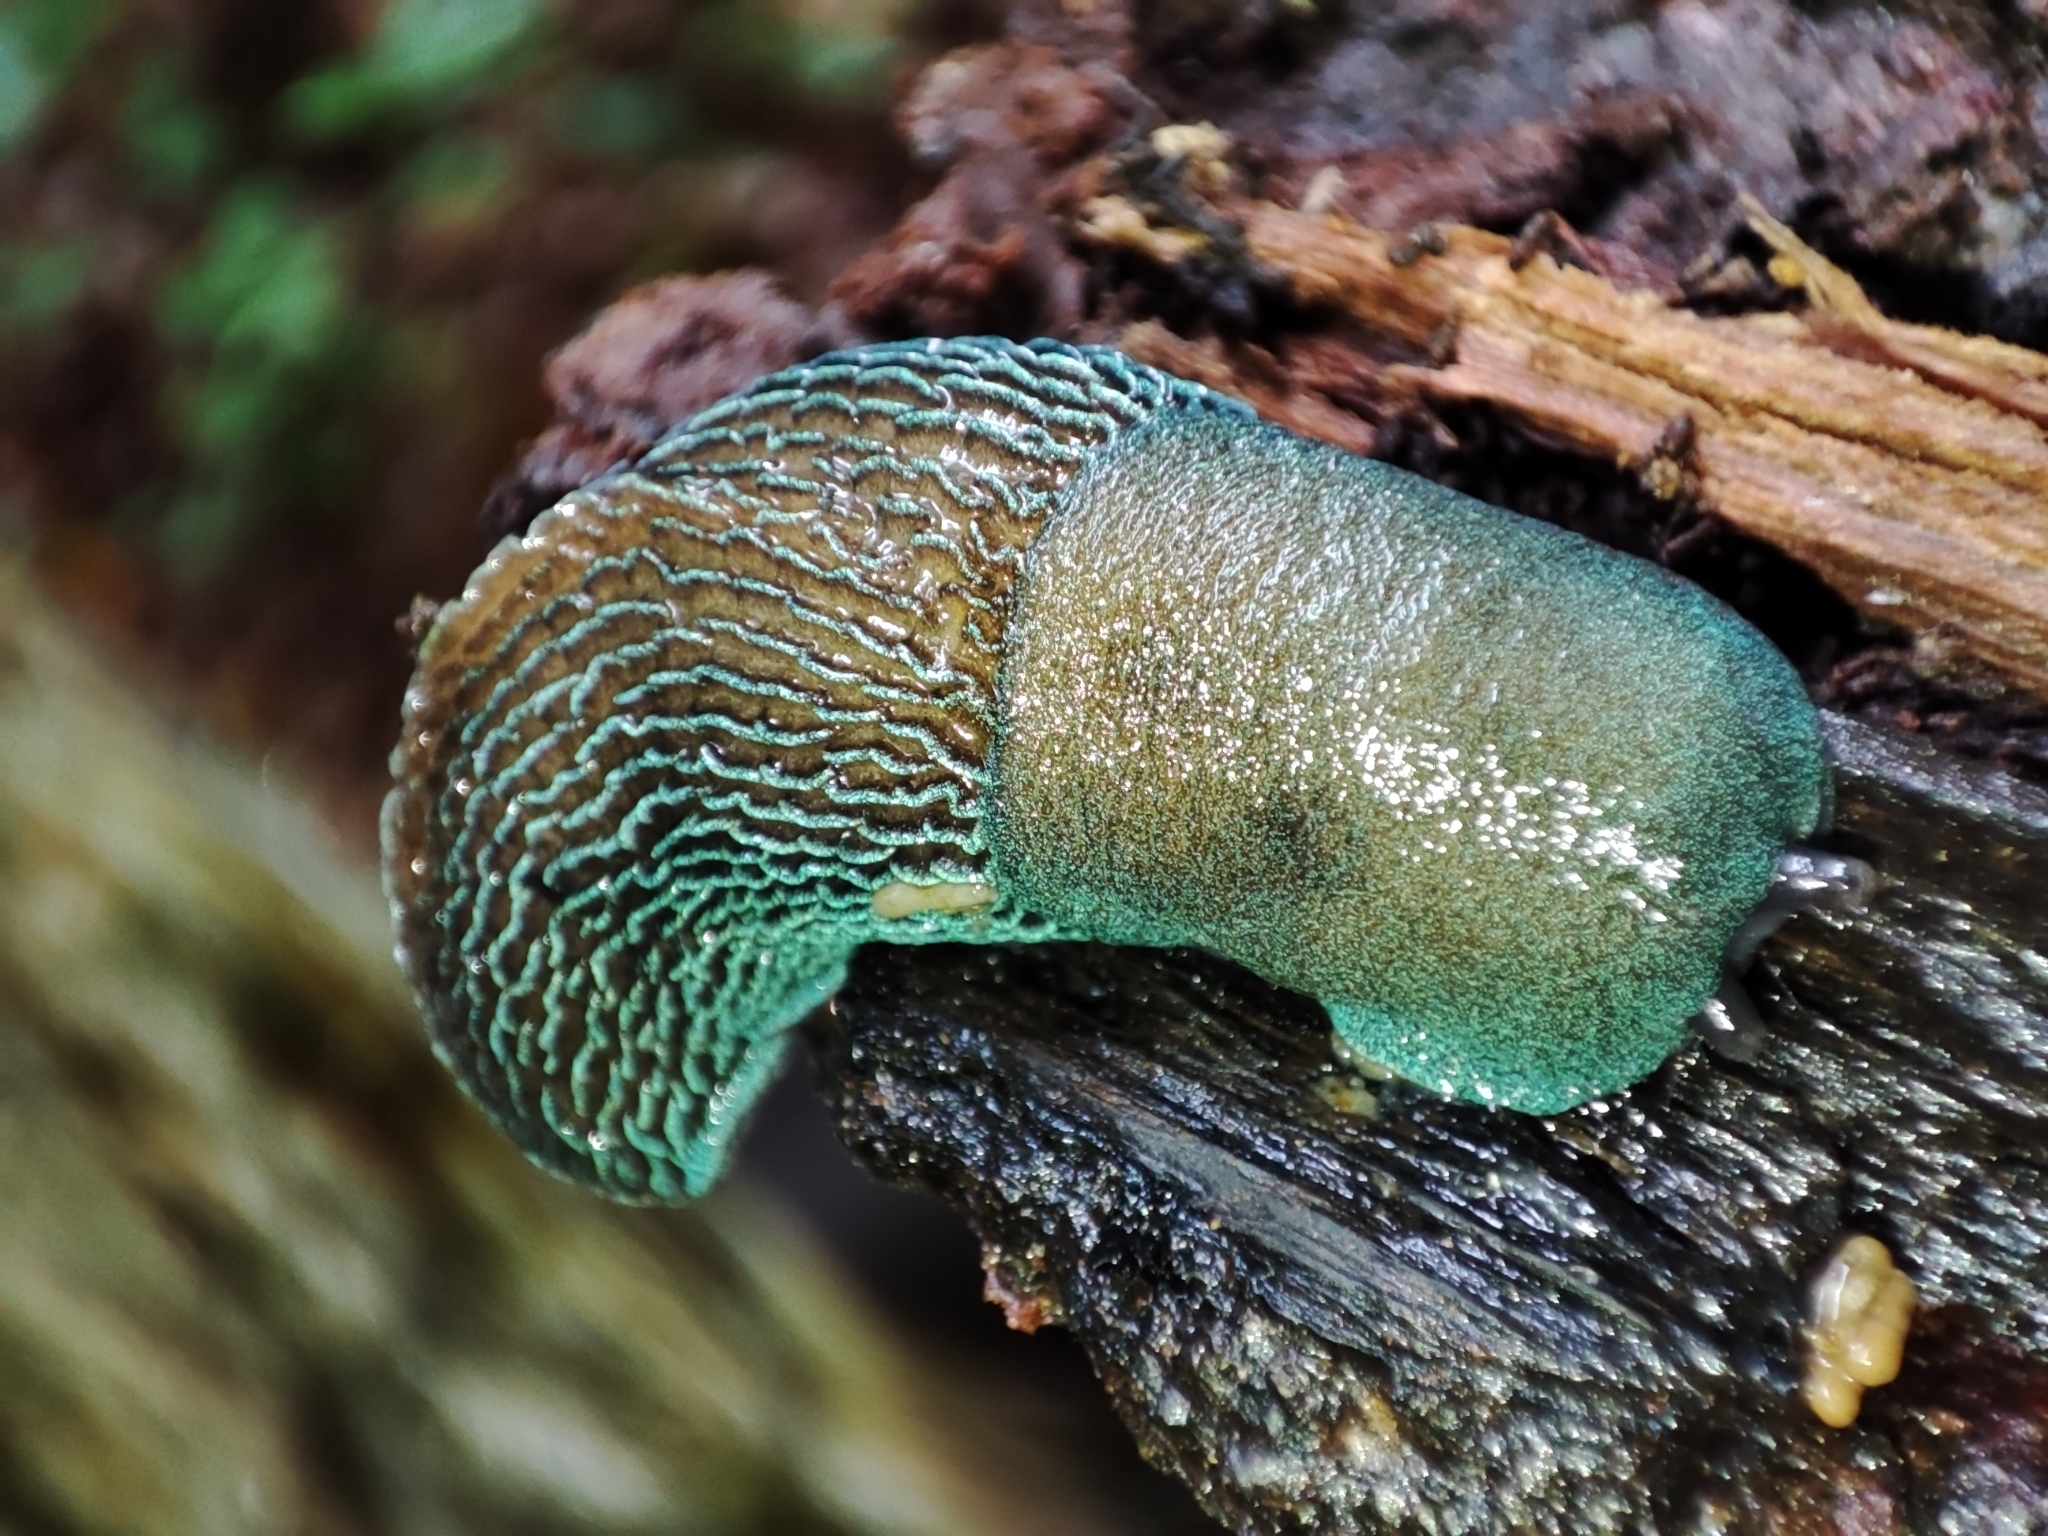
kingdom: Animalia
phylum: Mollusca
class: Gastropoda
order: Stylommatophora
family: Limacidae
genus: Bielzia
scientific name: Bielzia coerulans
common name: Carpathian blue slug
